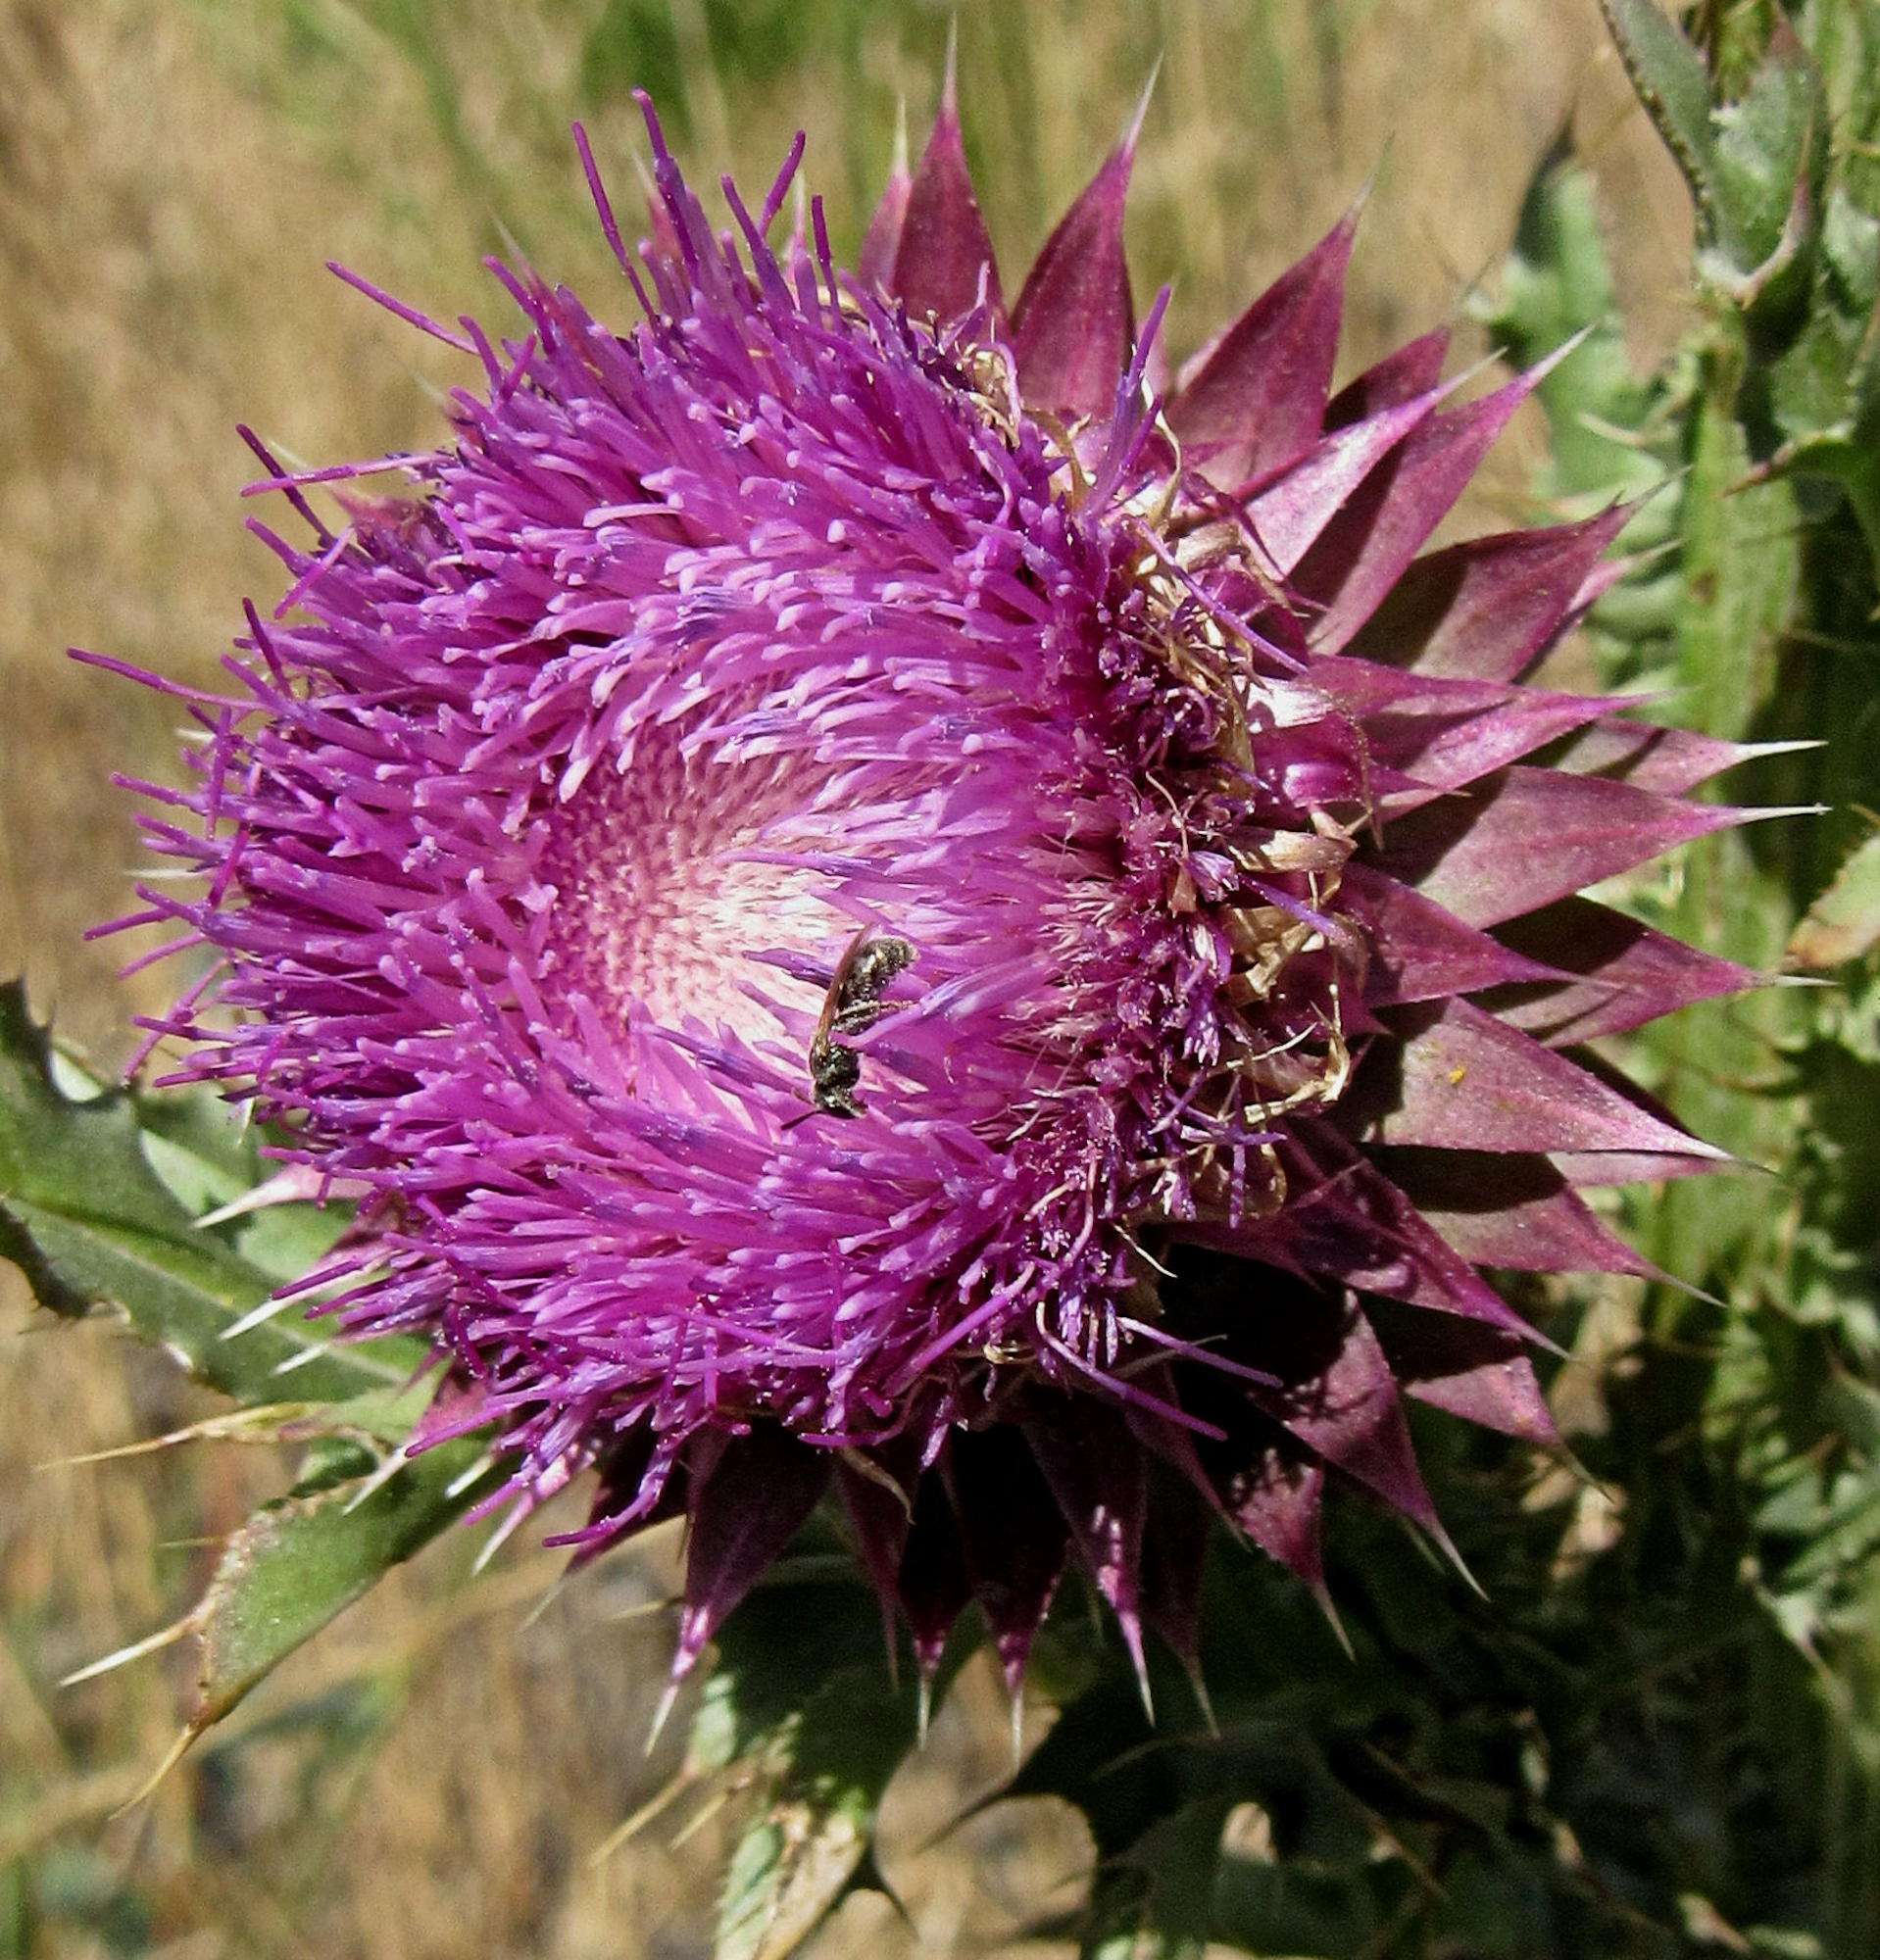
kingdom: Plantae
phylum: Tracheophyta
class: Magnoliopsida
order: Asterales
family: Asteraceae
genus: Carduus
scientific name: Carduus nutans
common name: Musk thistle
